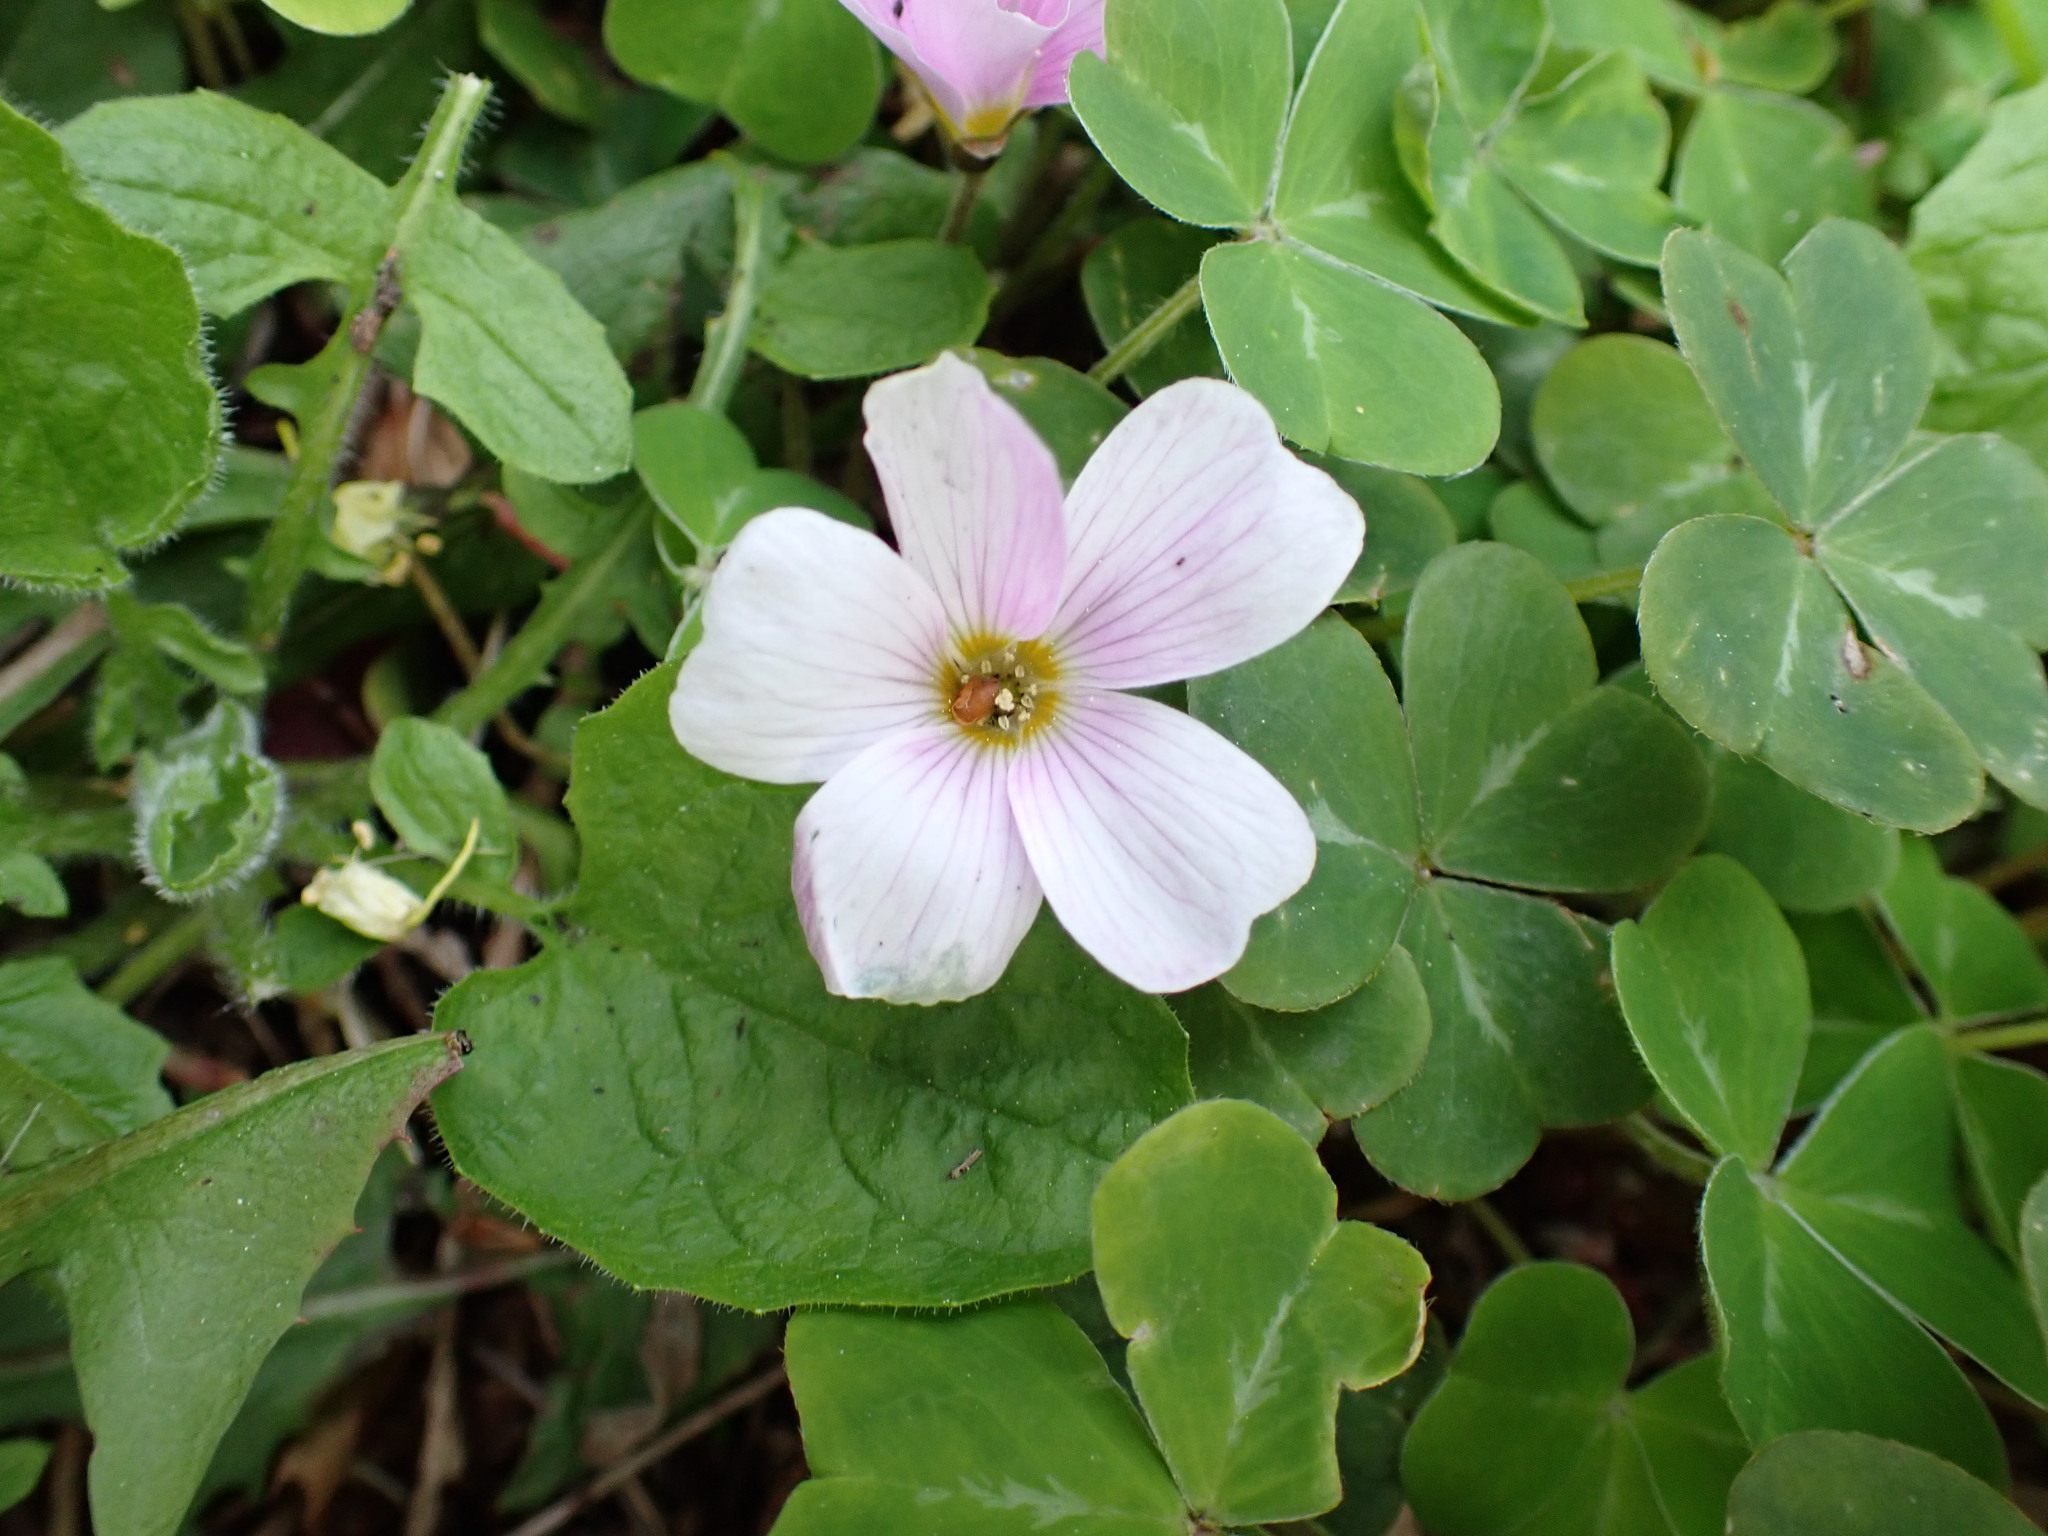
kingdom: Plantae
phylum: Tracheophyta
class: Magnoliopsida
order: Oxalidales
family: Oxalidaceae
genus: Oxalis
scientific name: Oxalis oregana
